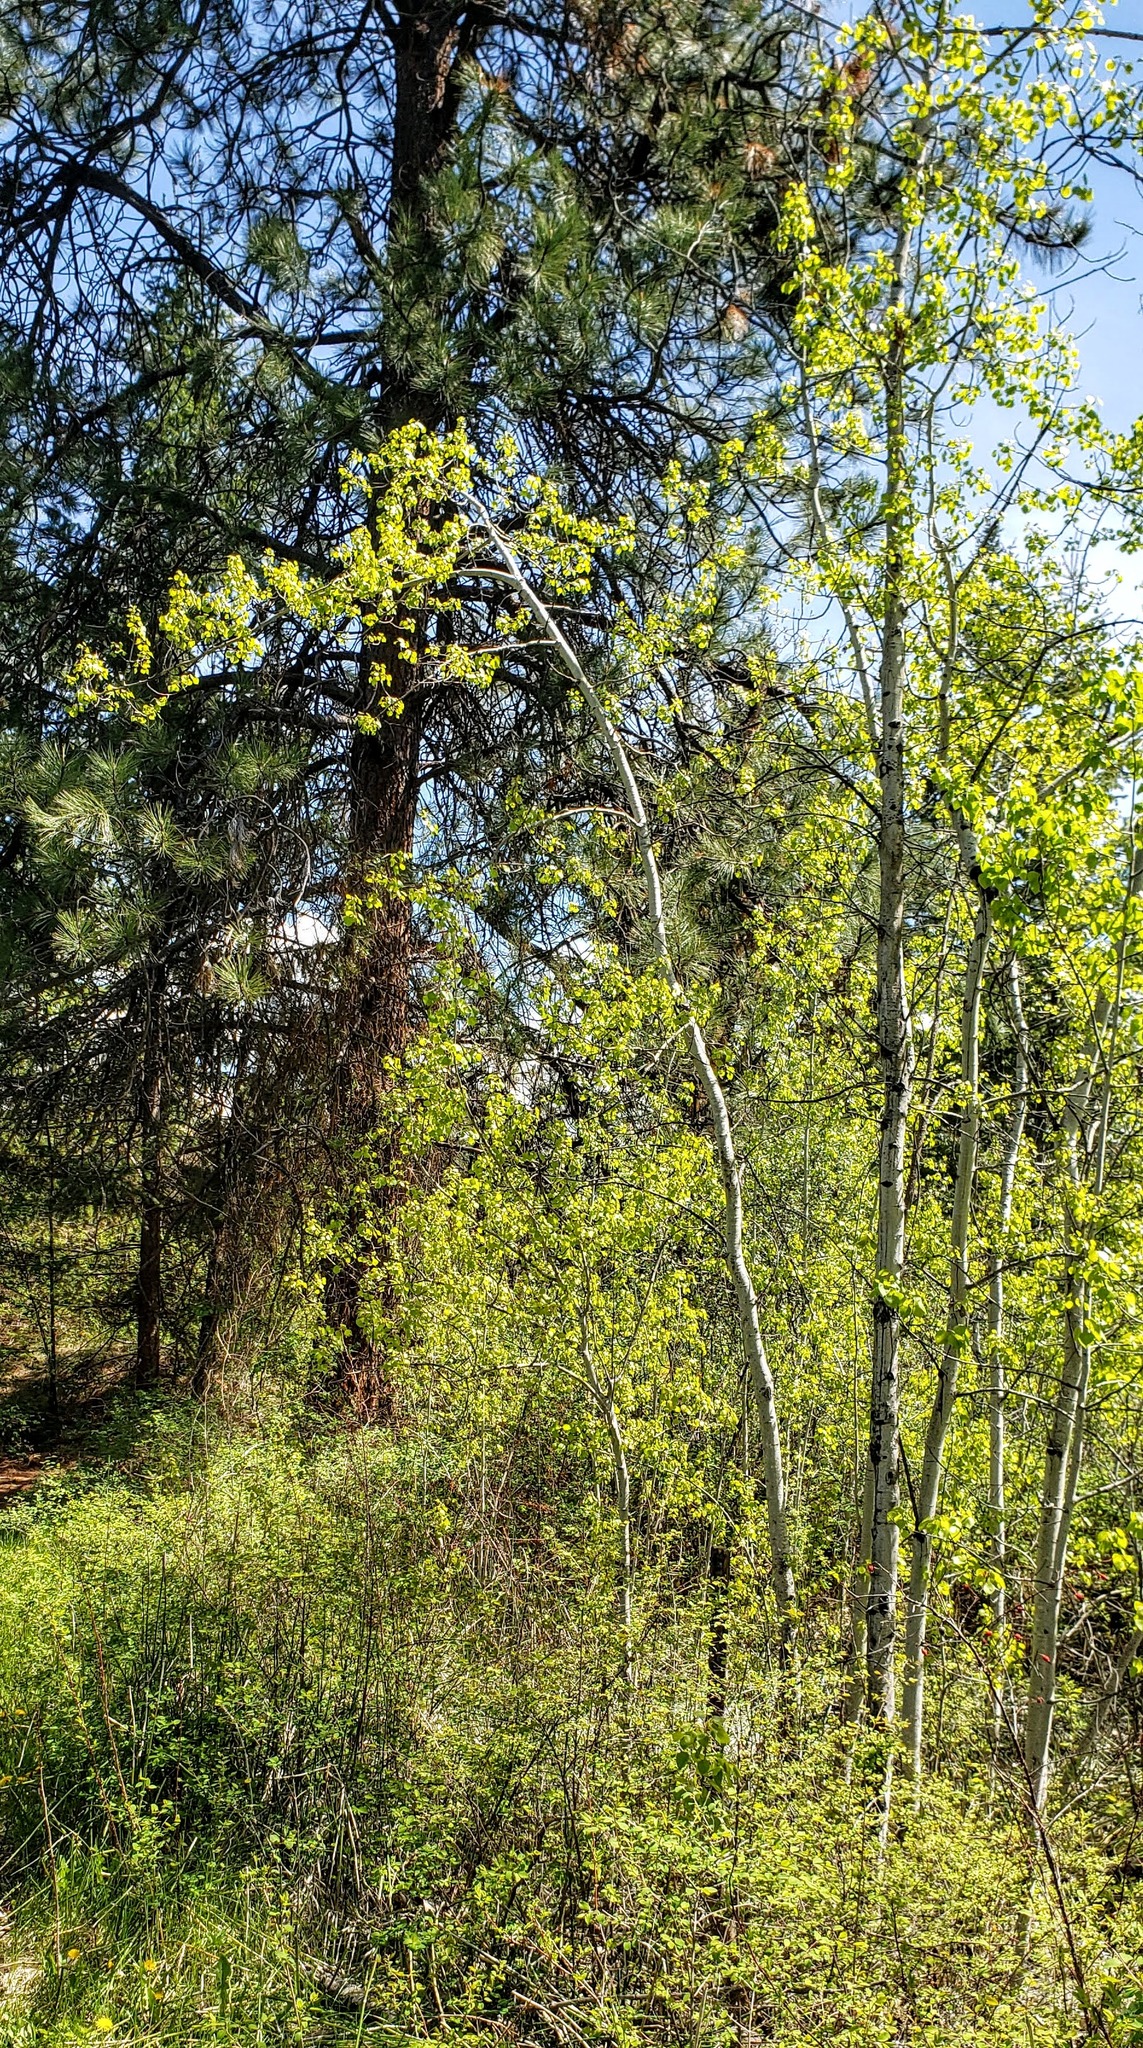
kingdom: Plantae
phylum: Tracheophyta
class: Magnoliopsida
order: Malpighiales
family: Salicaceae
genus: Populus
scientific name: Populus tremuloides
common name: Quaking aspen
